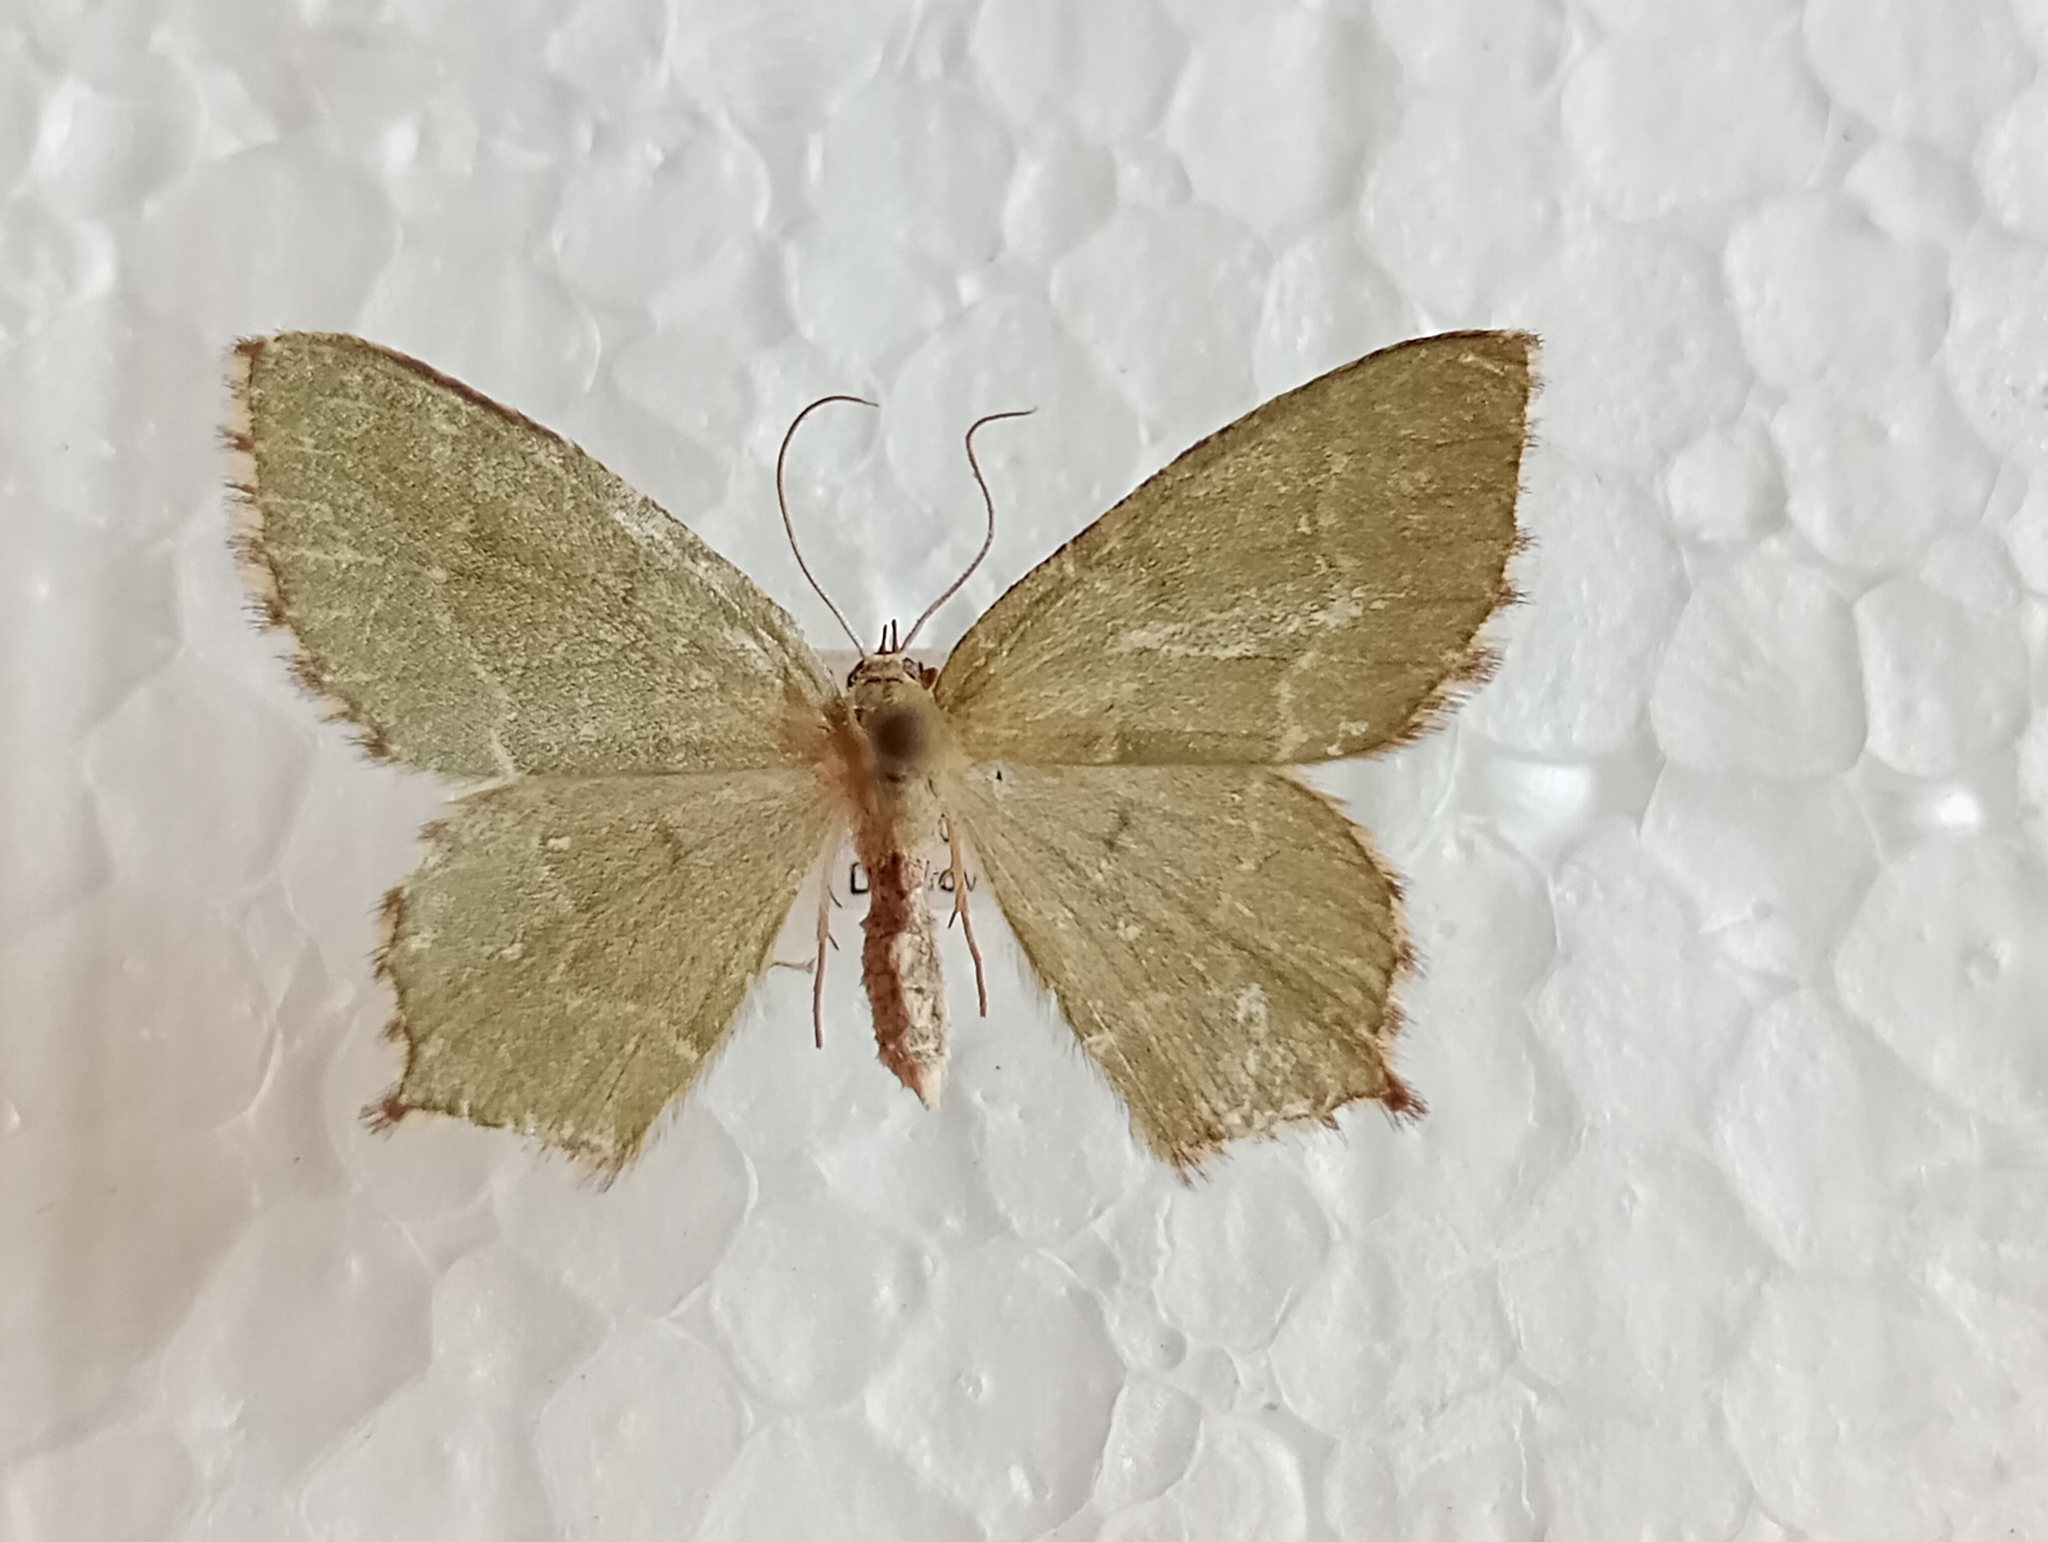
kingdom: Animalia
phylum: Arthropoda
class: Insecta
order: Lepidoptera
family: Geometridae
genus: Hemithea
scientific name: Hemithea aestivaria
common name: Common emerald
